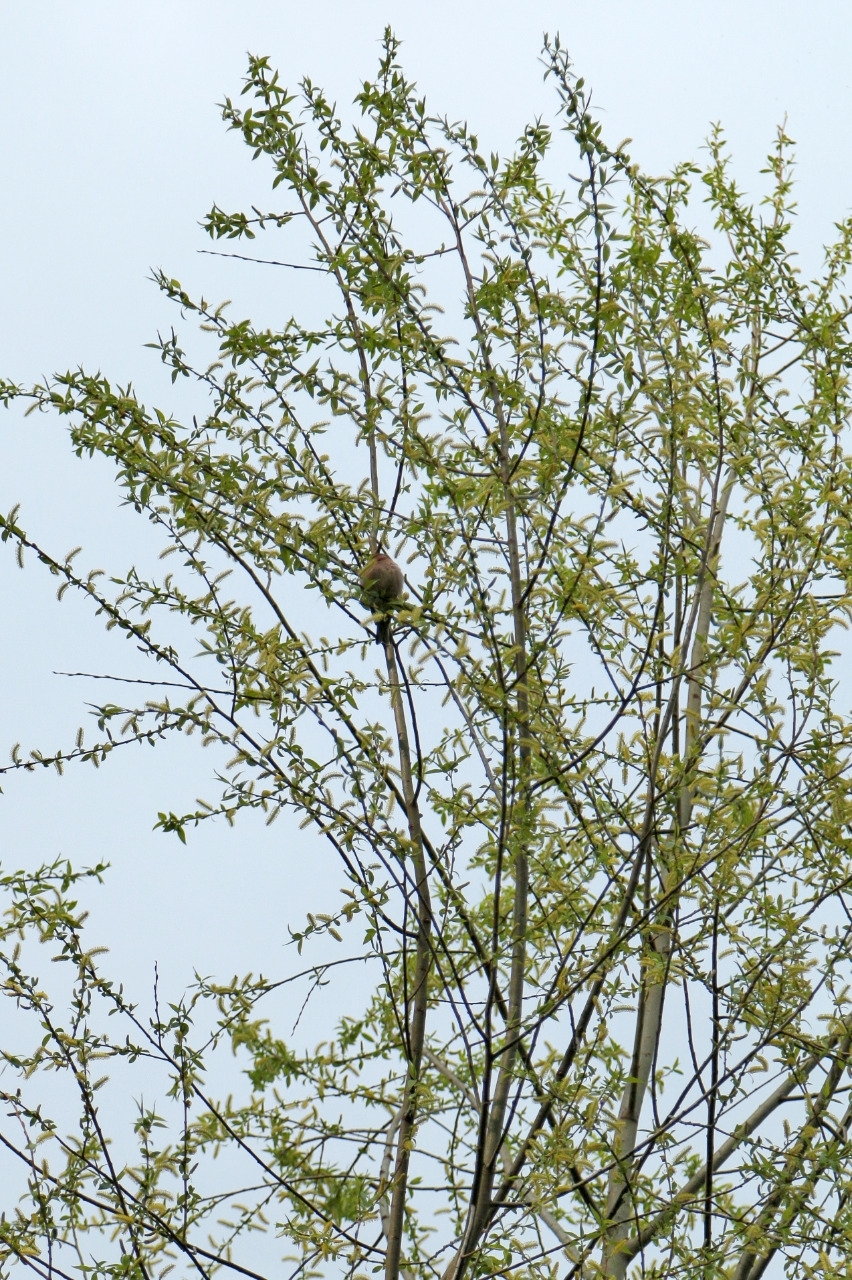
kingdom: Animalia
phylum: Chordata
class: Aves
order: Passeriformes
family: Fringillidae
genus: Fringilla
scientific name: Fringilla coelebs
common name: Common chaffinch
